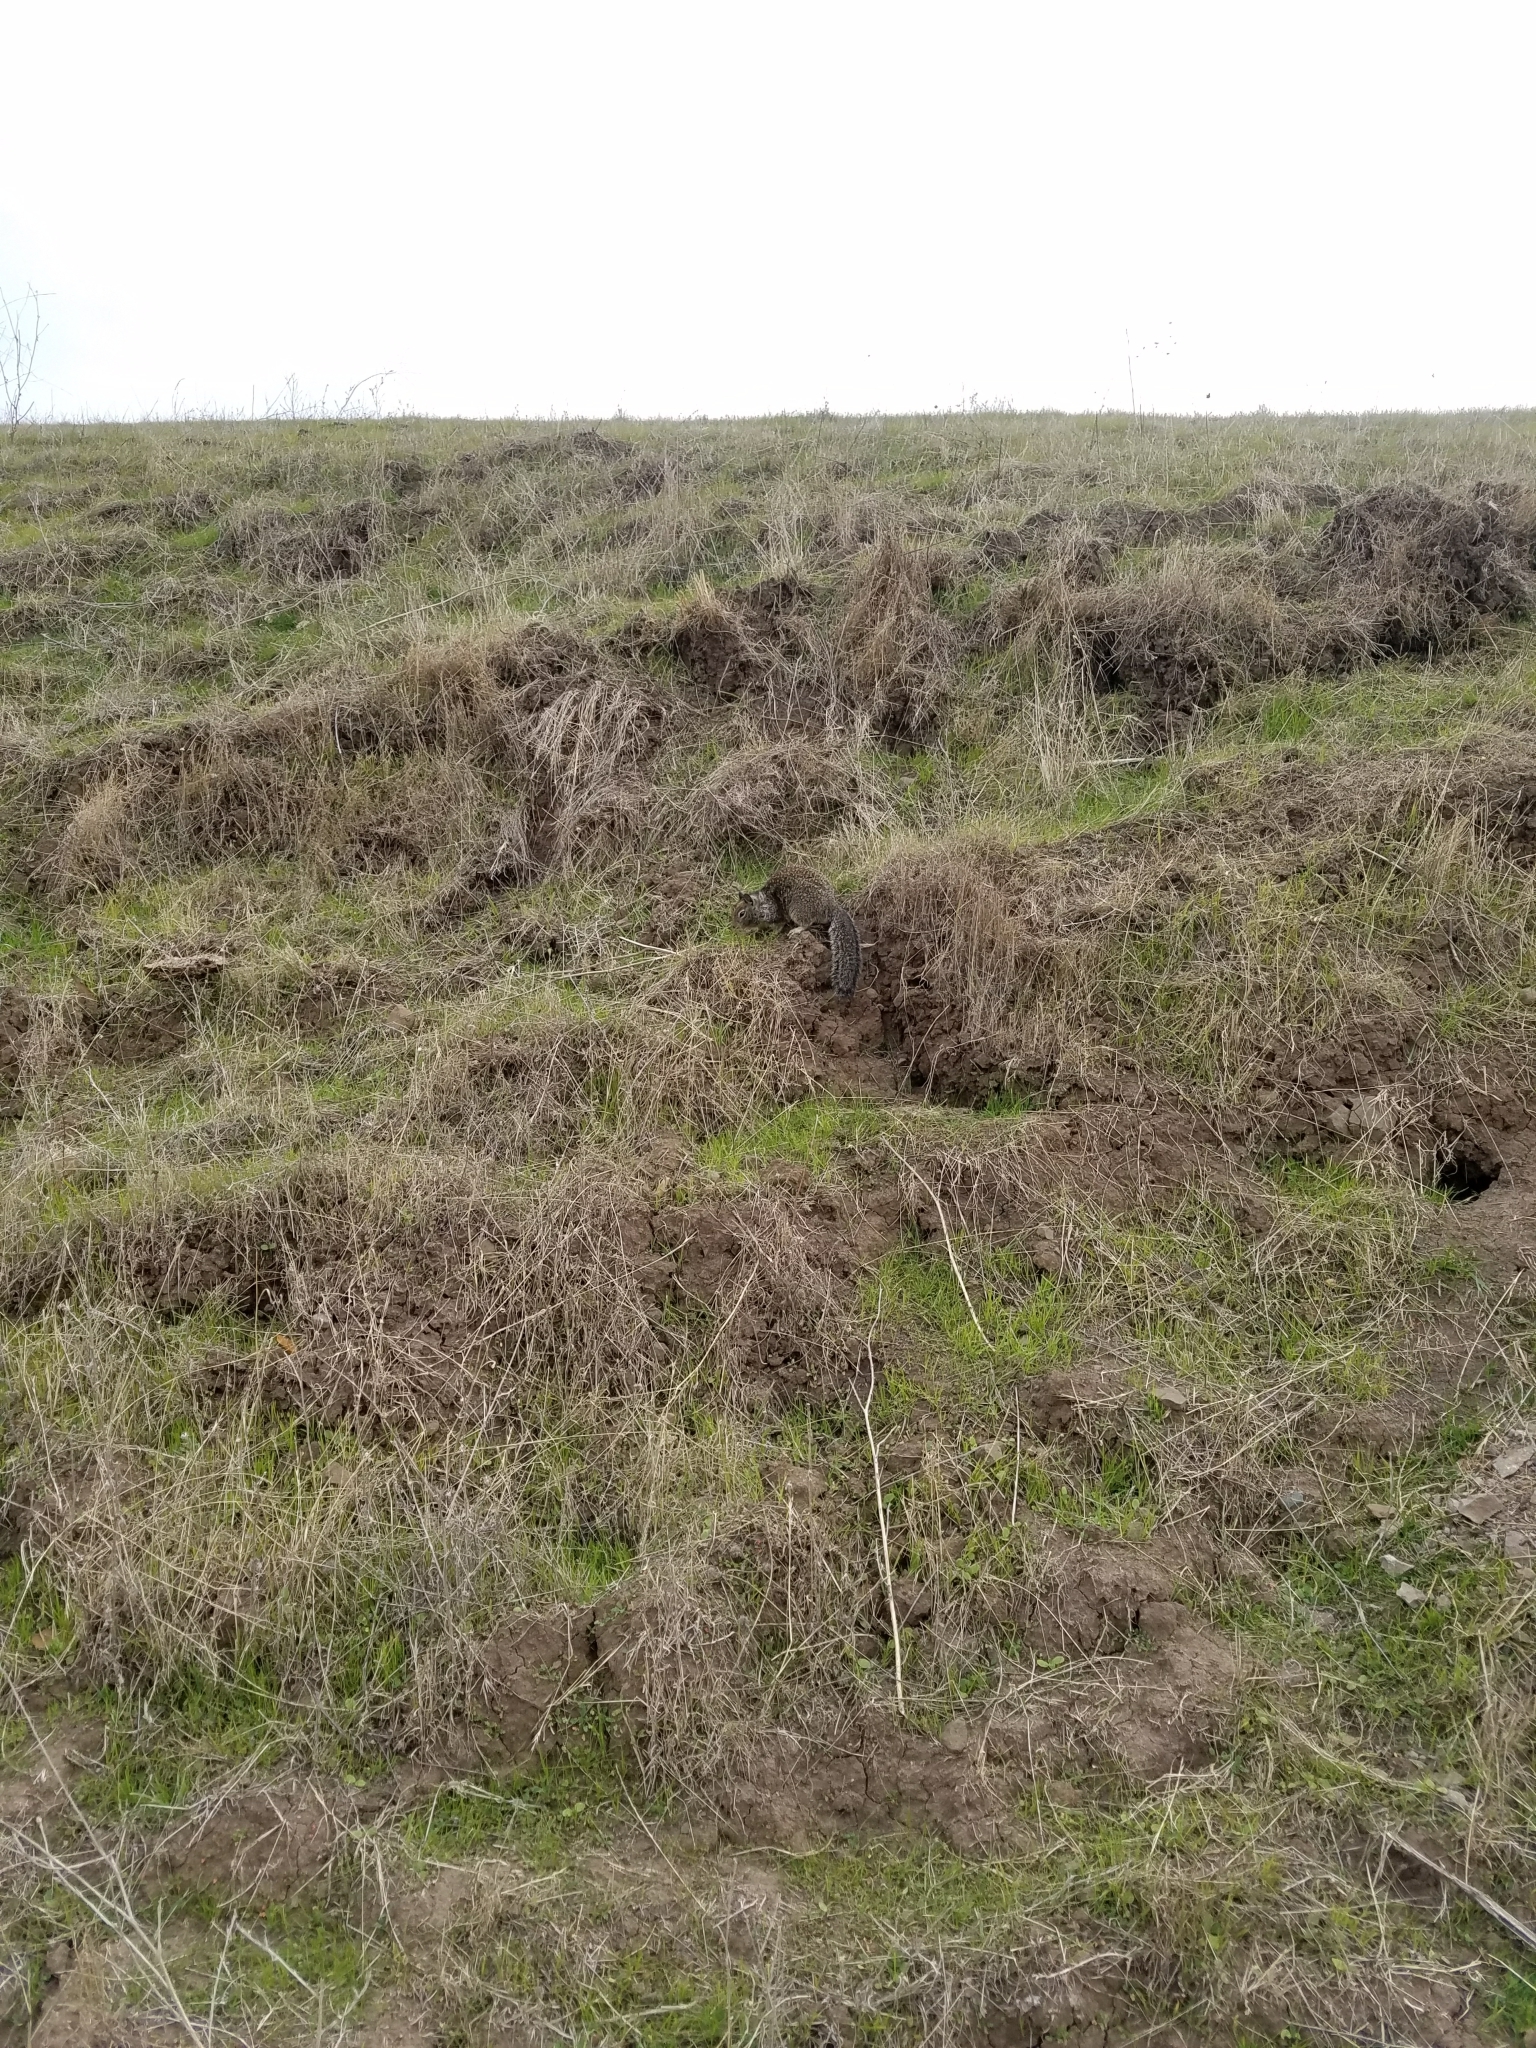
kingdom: Animalia
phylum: Chordata
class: Mammalia
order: Rodentia
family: Sciuridae
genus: Otospermophilus
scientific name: Otospermophilus beecheyi
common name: California ground squirrel
